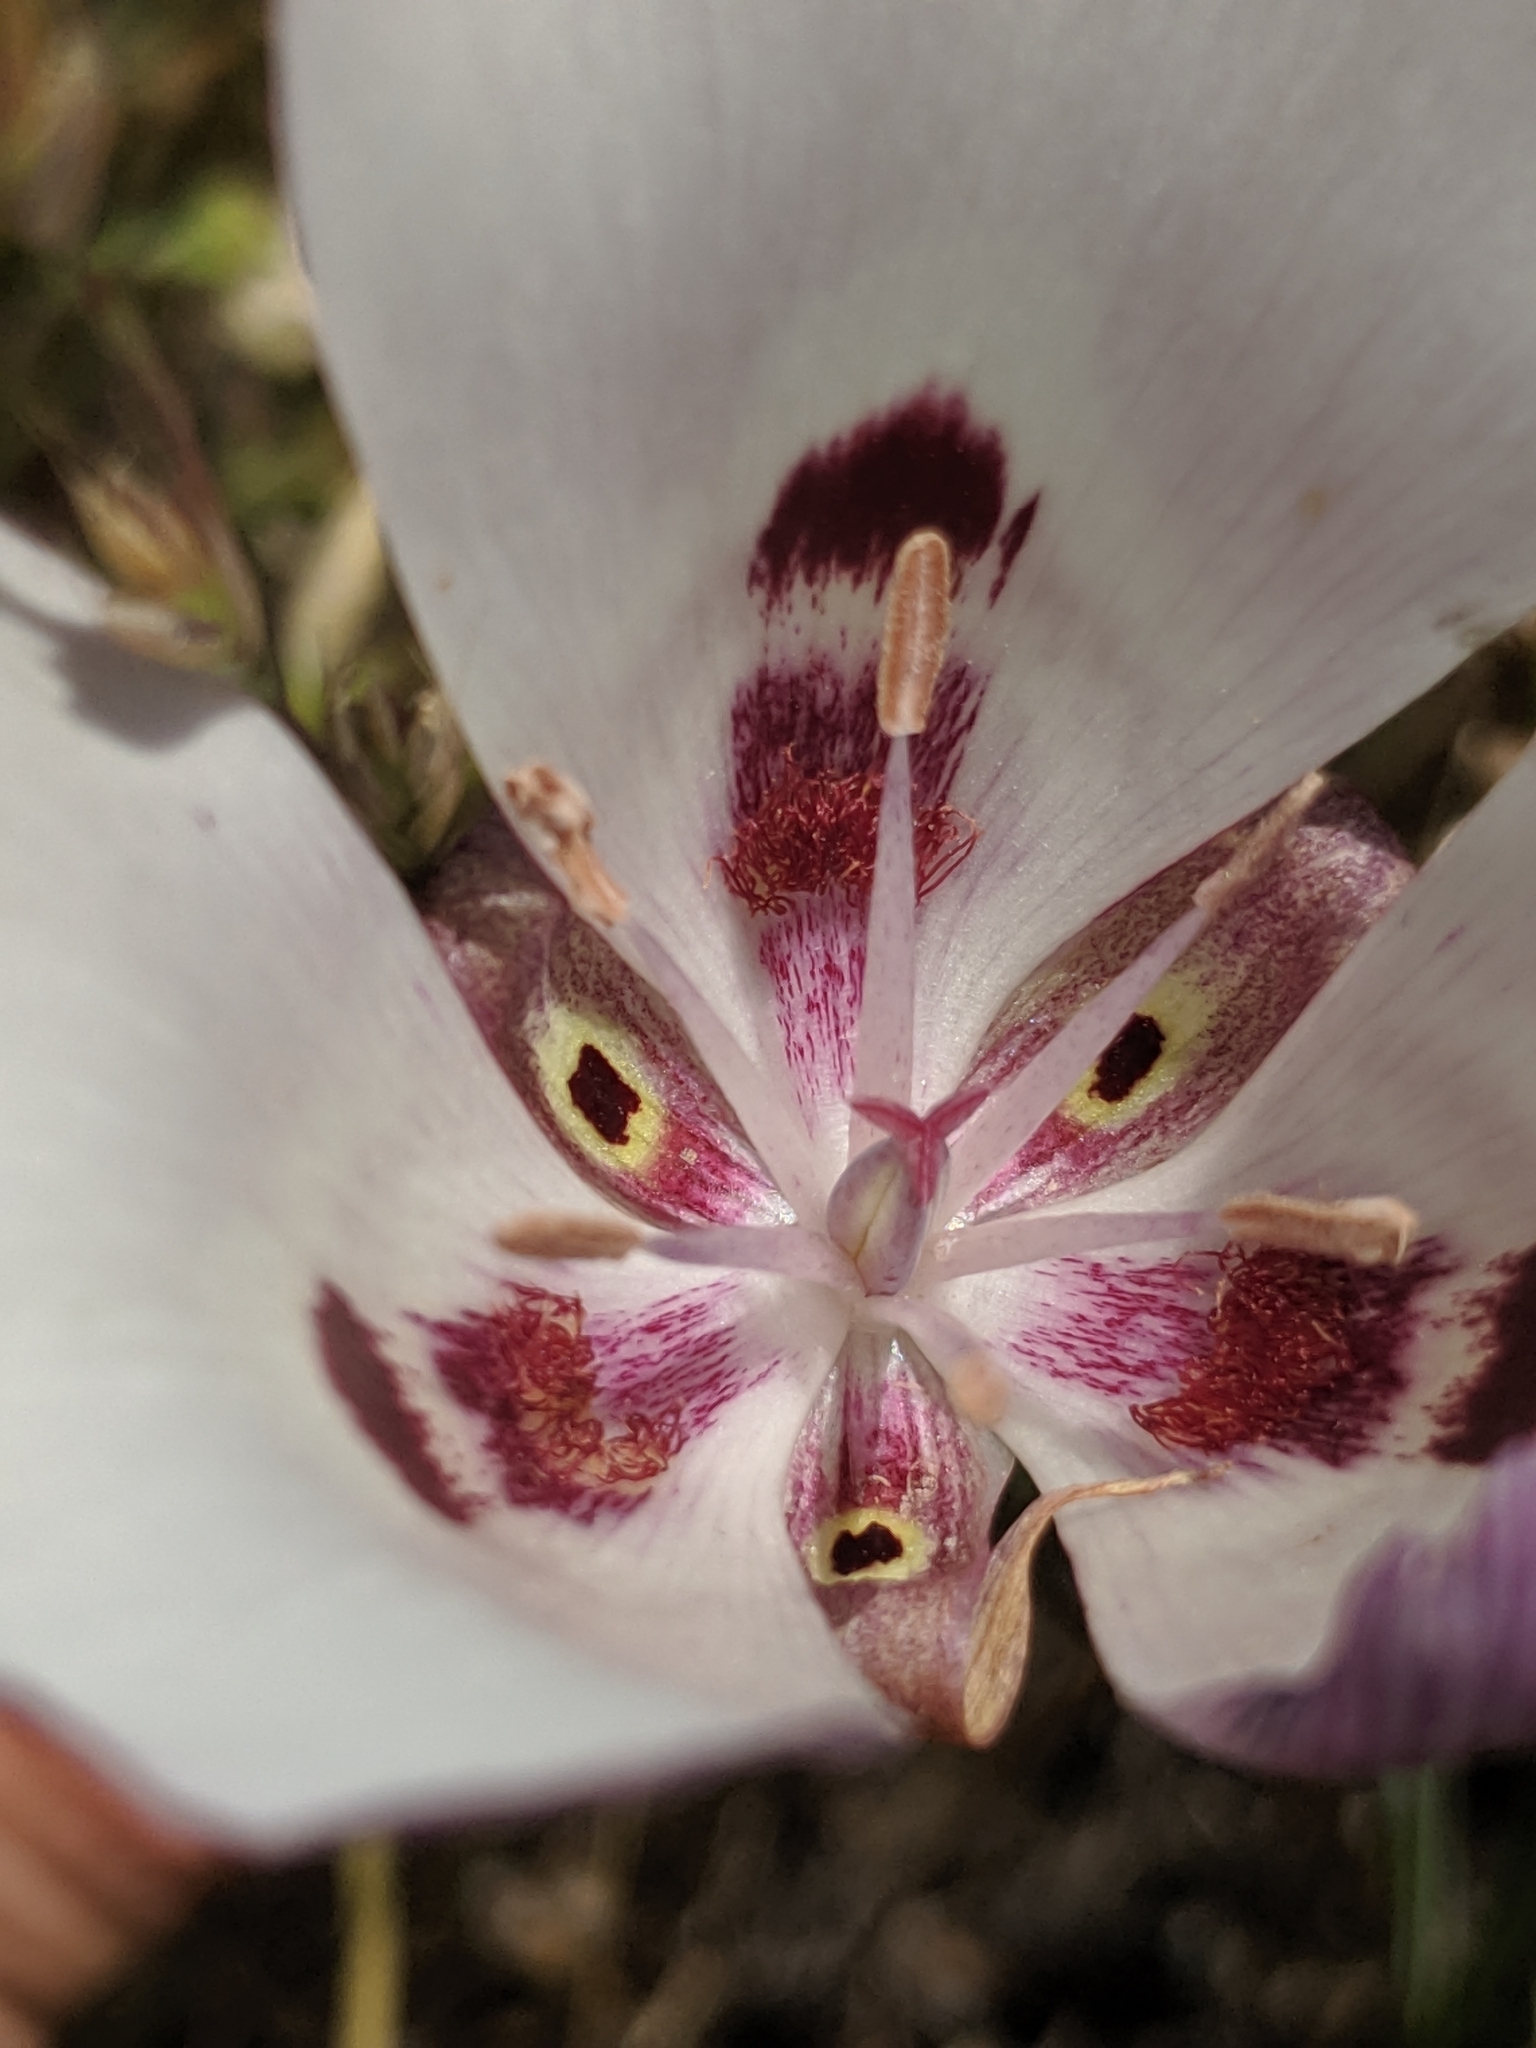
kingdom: Plantae
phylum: Tracheophyta
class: Liliopsida
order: Liliales
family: Liliaceae
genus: Calochortus
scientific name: Calochortus argillosus
